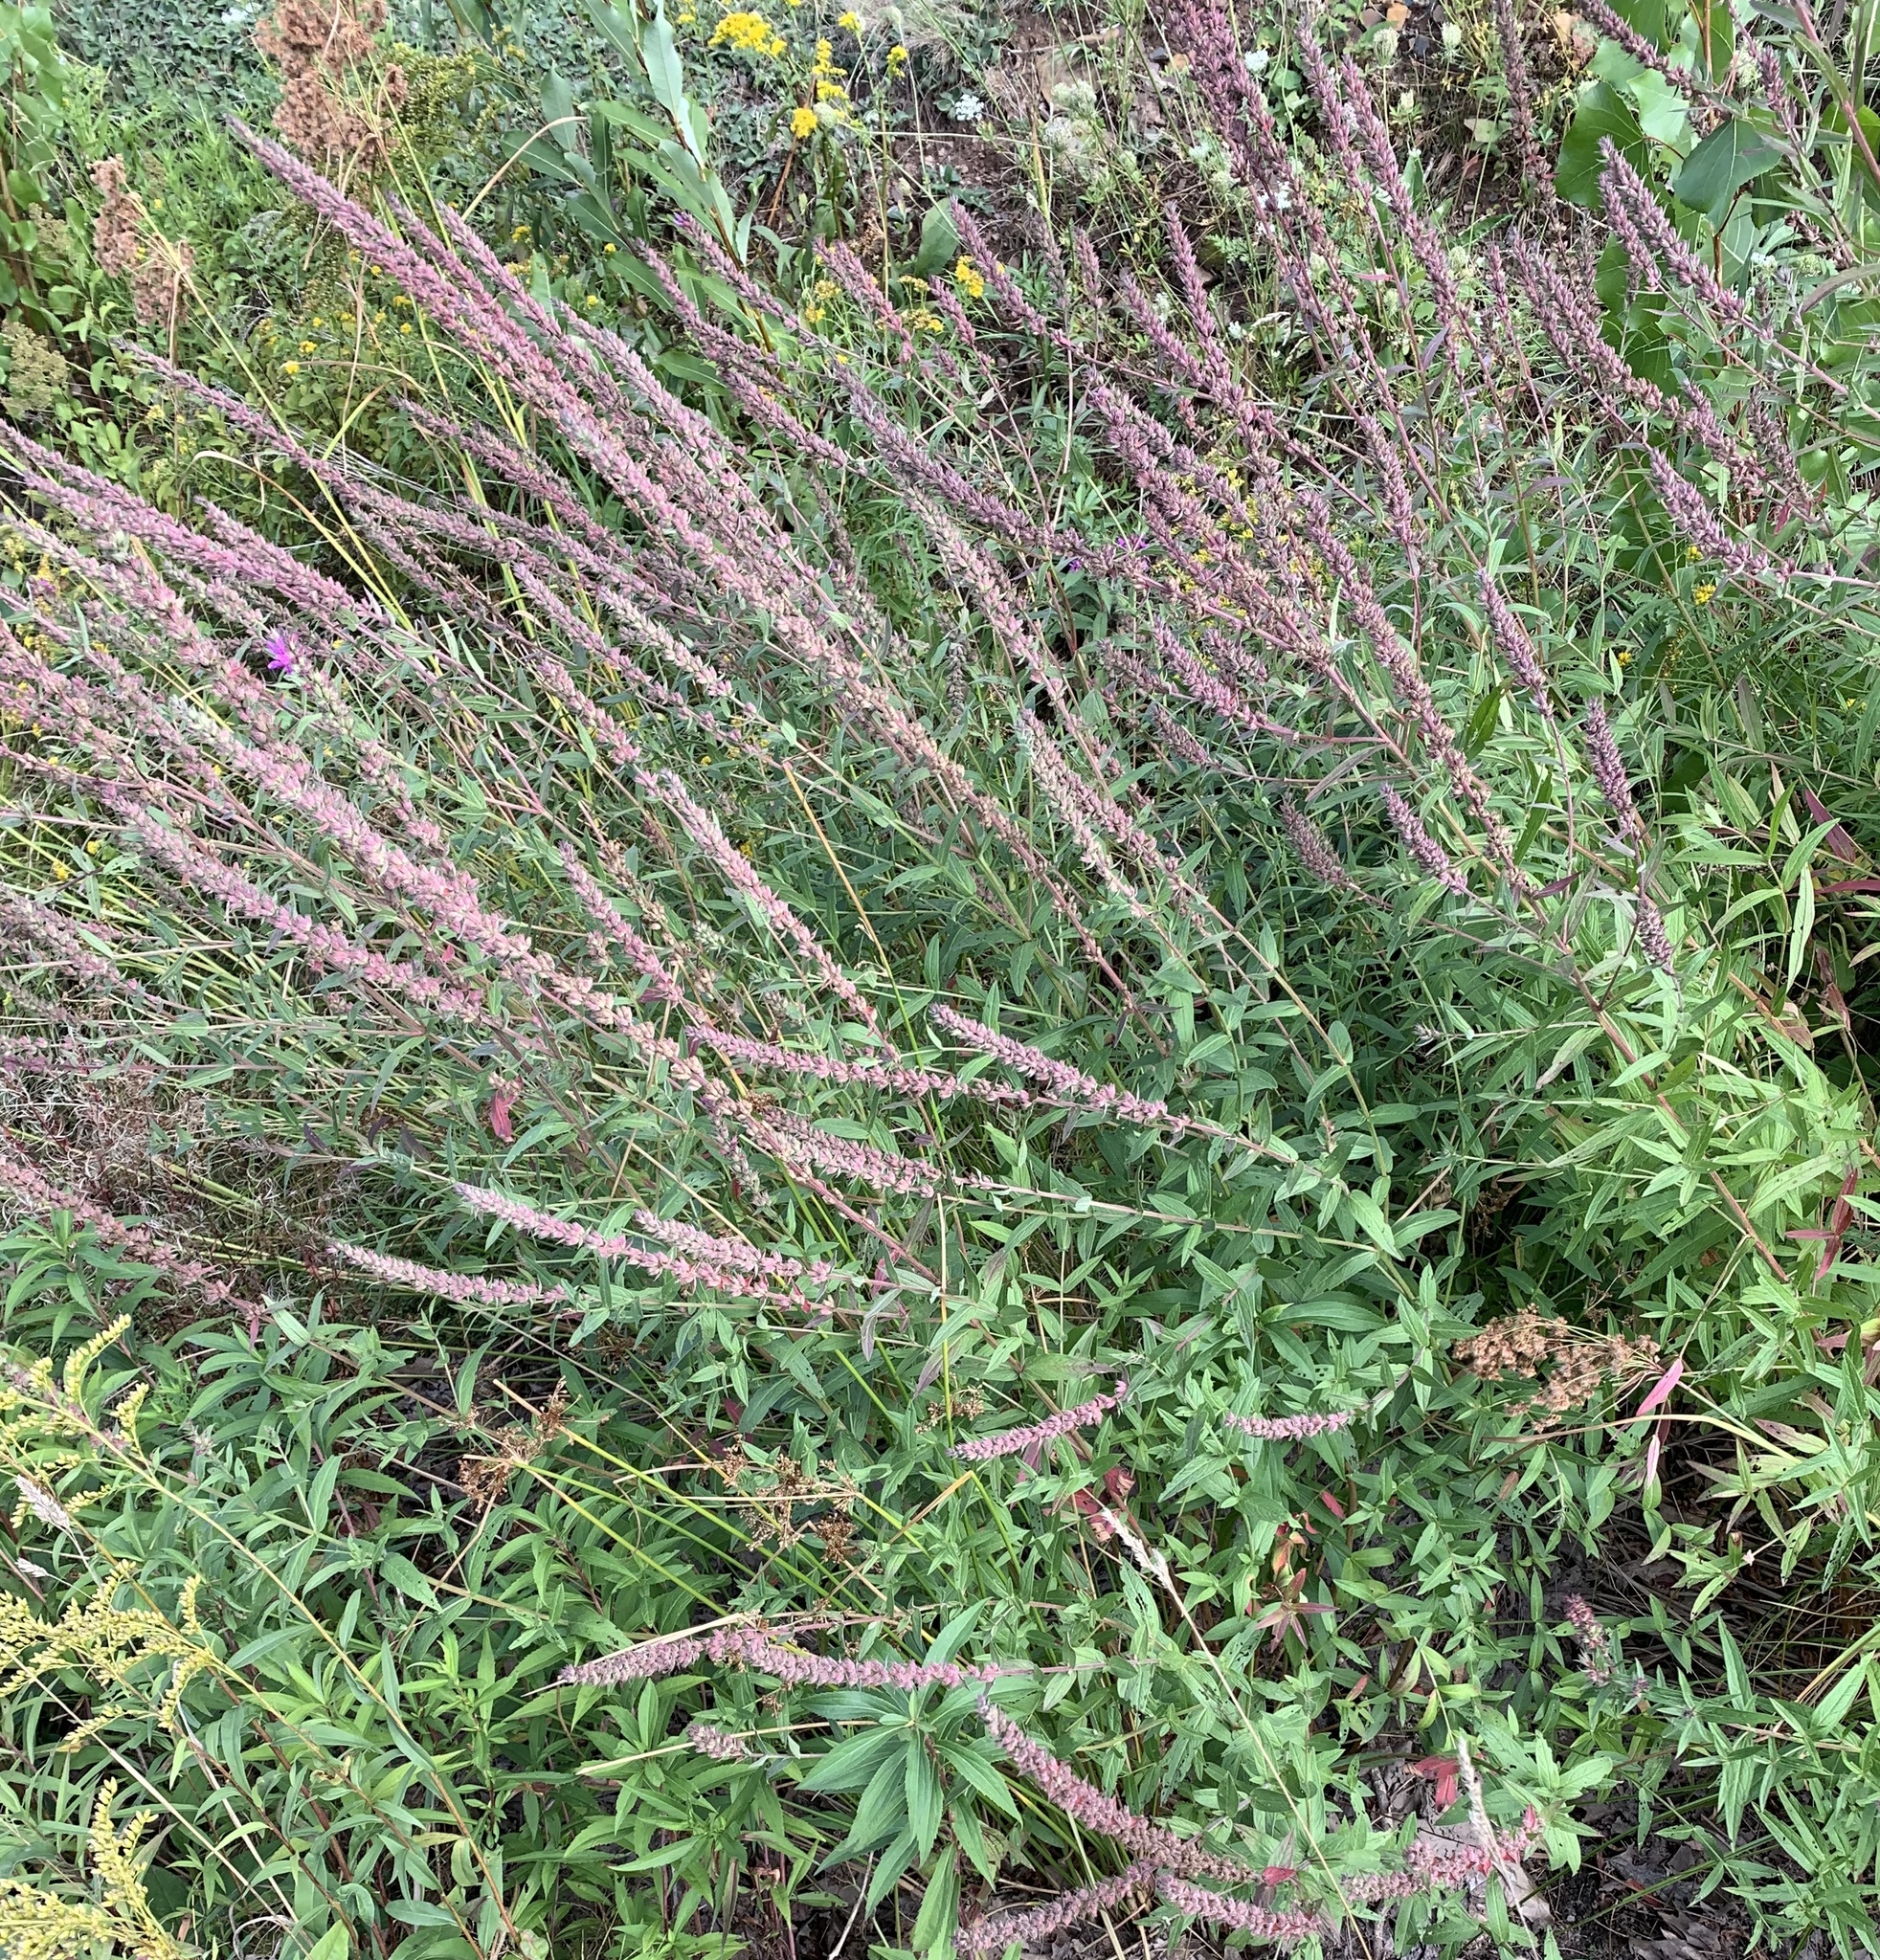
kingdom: Plantae
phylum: Tracheophyta
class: Magnoliopsida
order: Myrtales
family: Lythraceae
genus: Lythrum
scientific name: Lythrum salicaria
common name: Purple loosestrife
